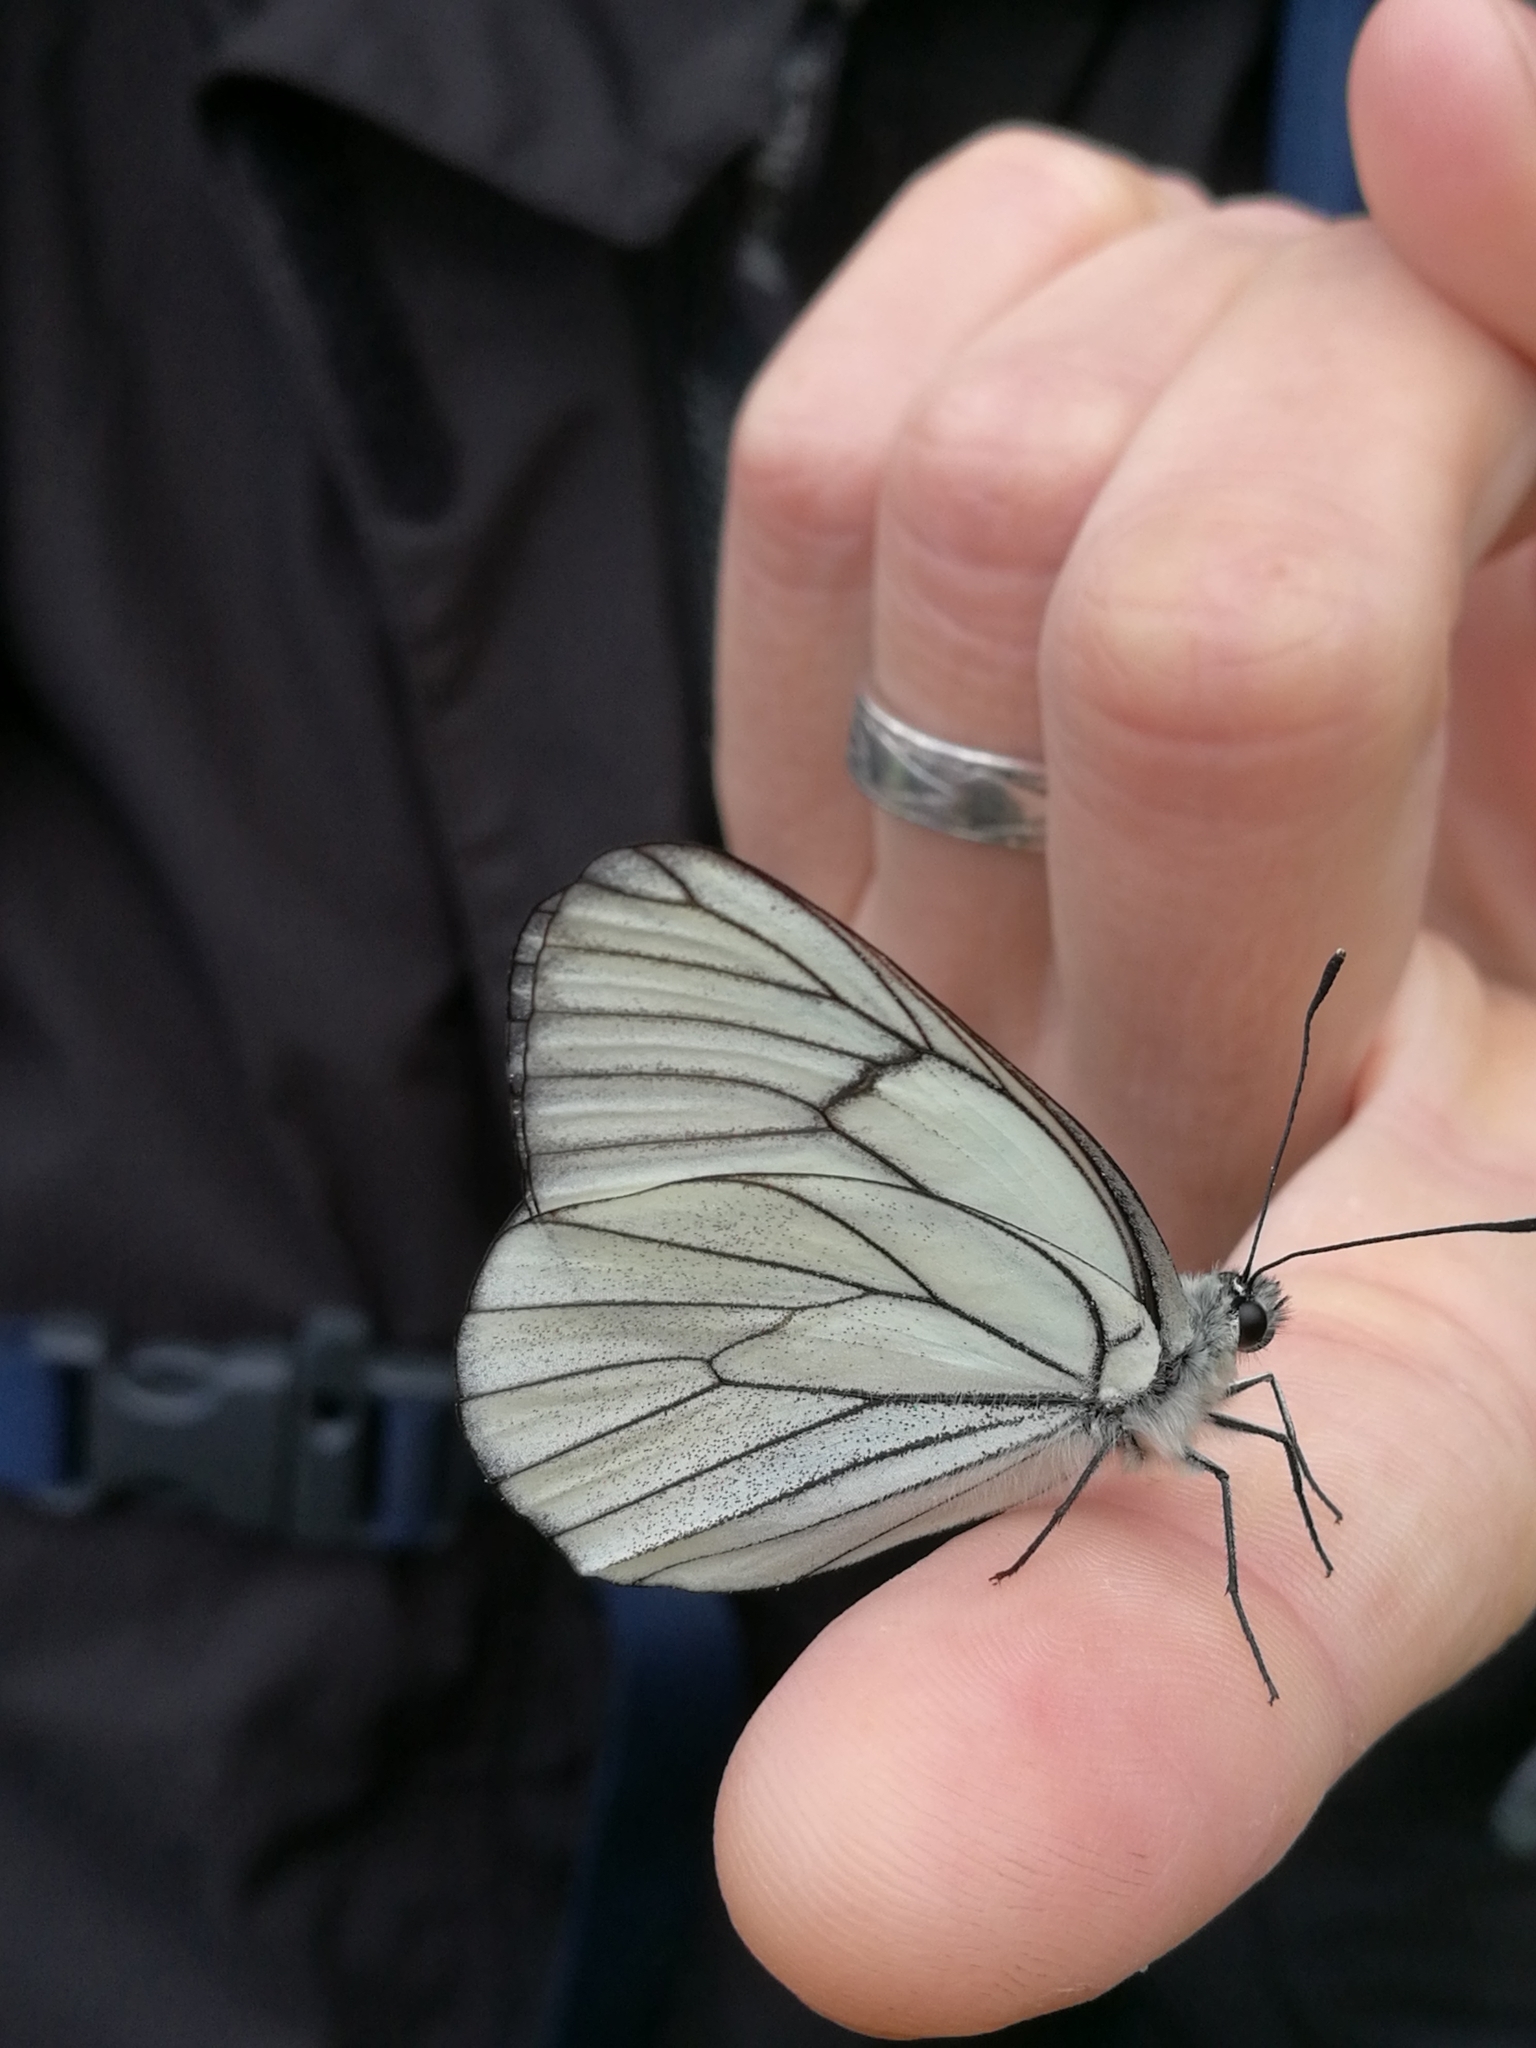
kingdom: Animalia
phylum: Arthropoda
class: Insecta
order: Lepidoptera
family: Pieridae
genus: Aporia
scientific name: Aporia crataegi
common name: Black-veined white
